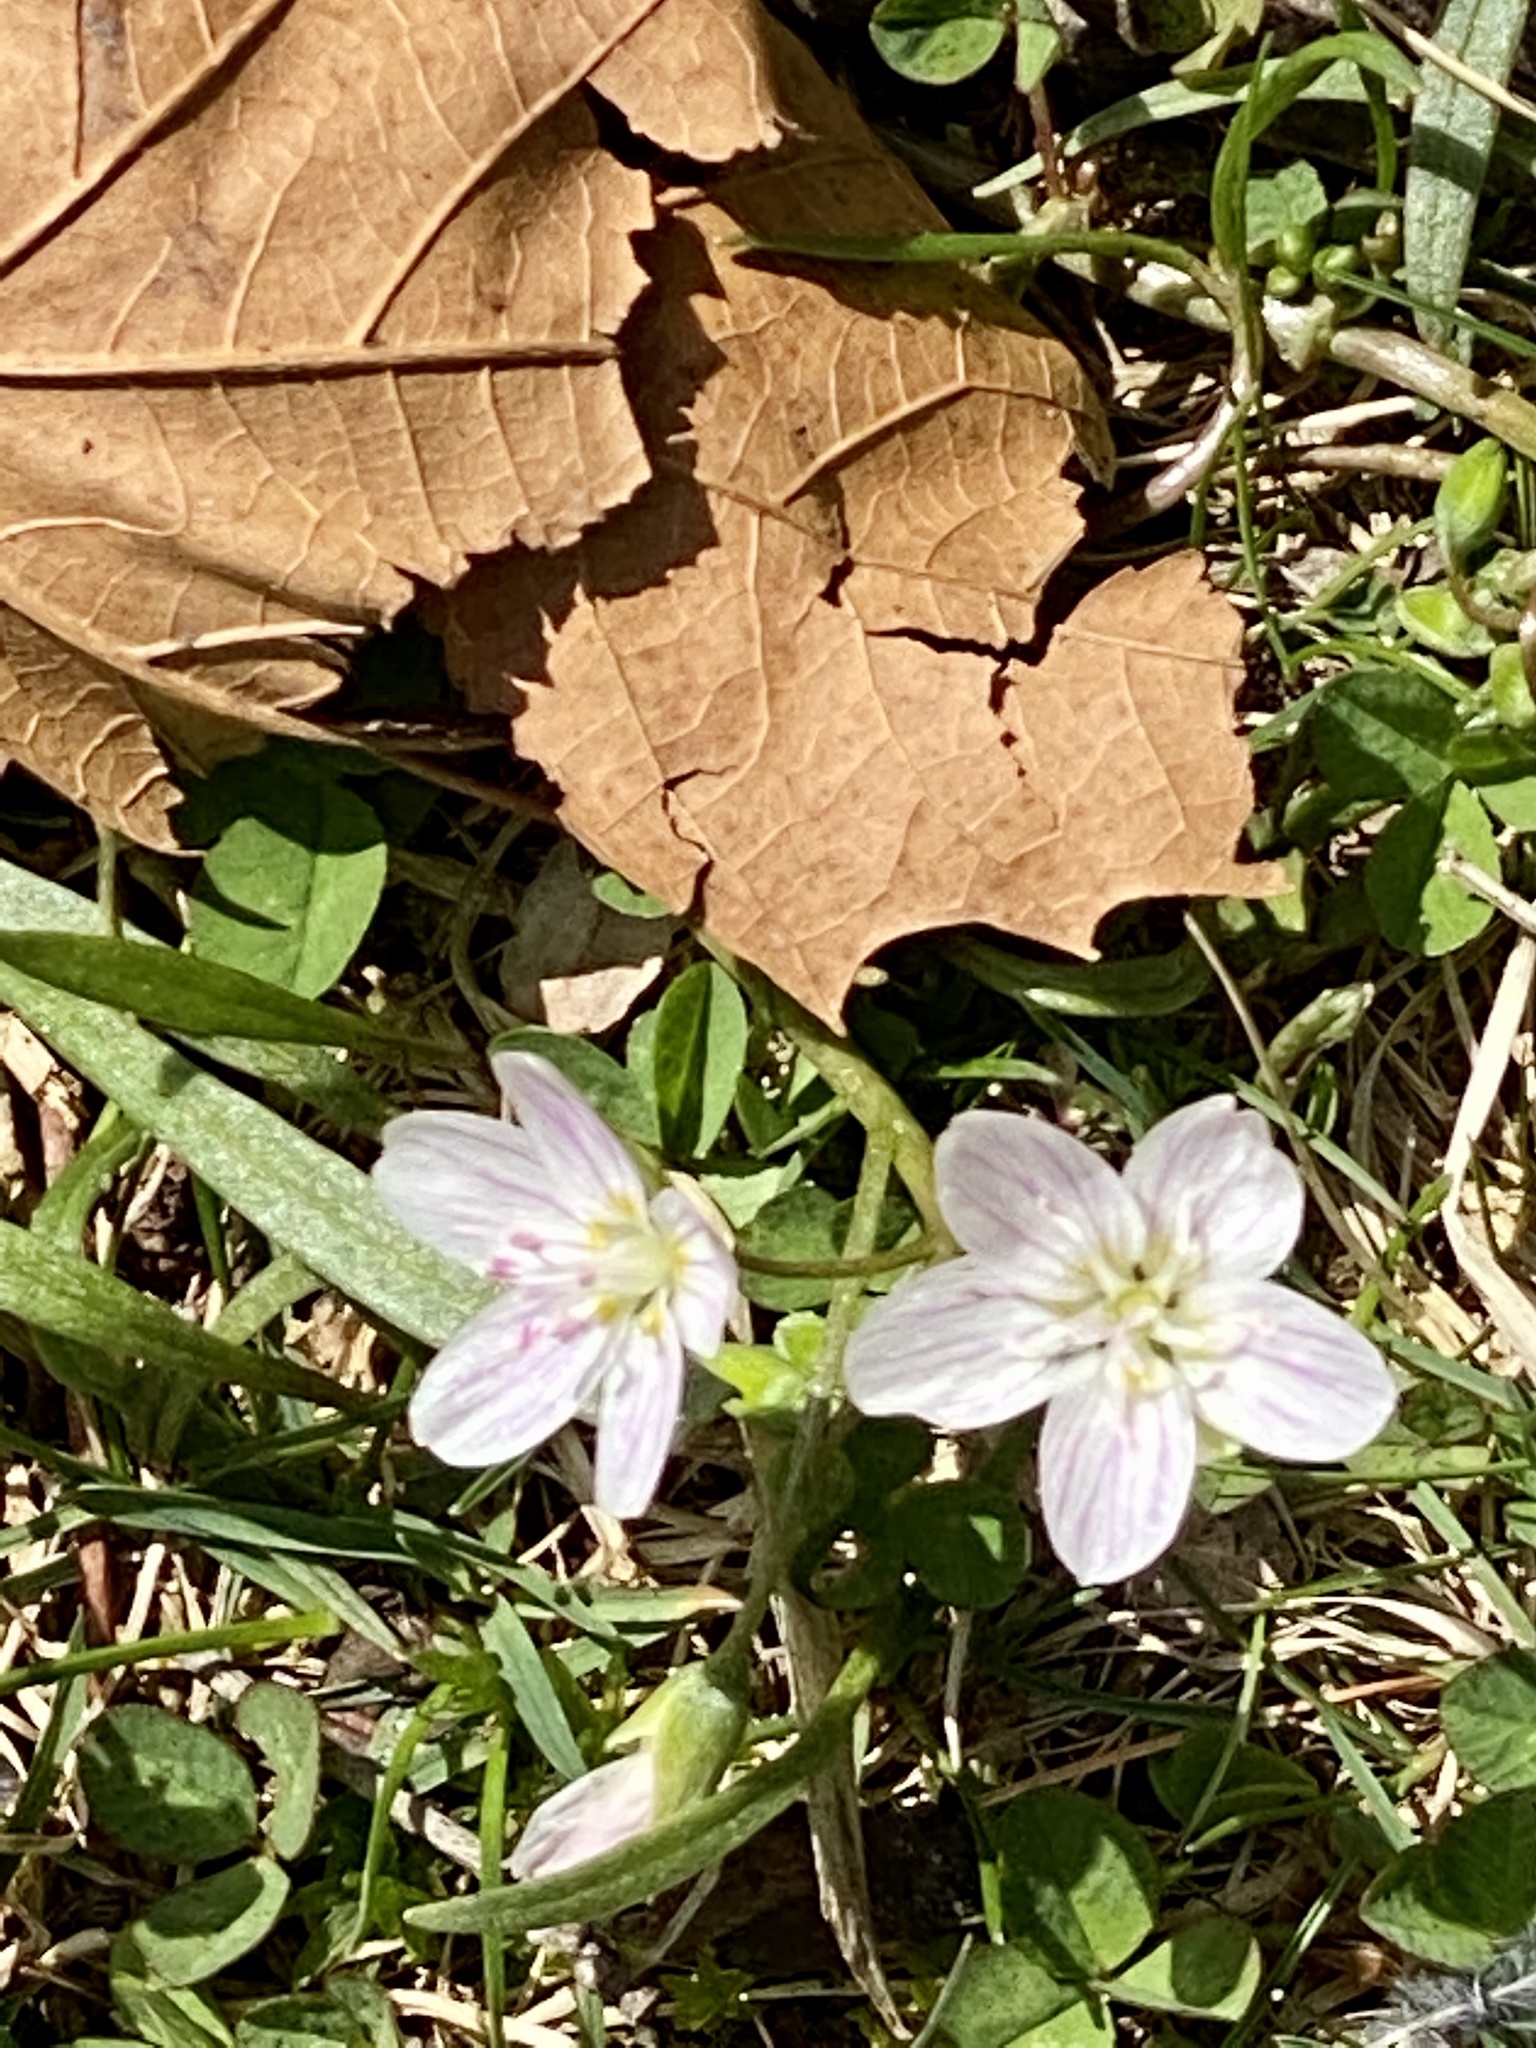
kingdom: Plantae
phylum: Tracheophyta
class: Magnoliopsida
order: Caryophyllales
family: Montiaceae
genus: Claytonia
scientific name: Claytonia virginica
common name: Virginia springbeauty
